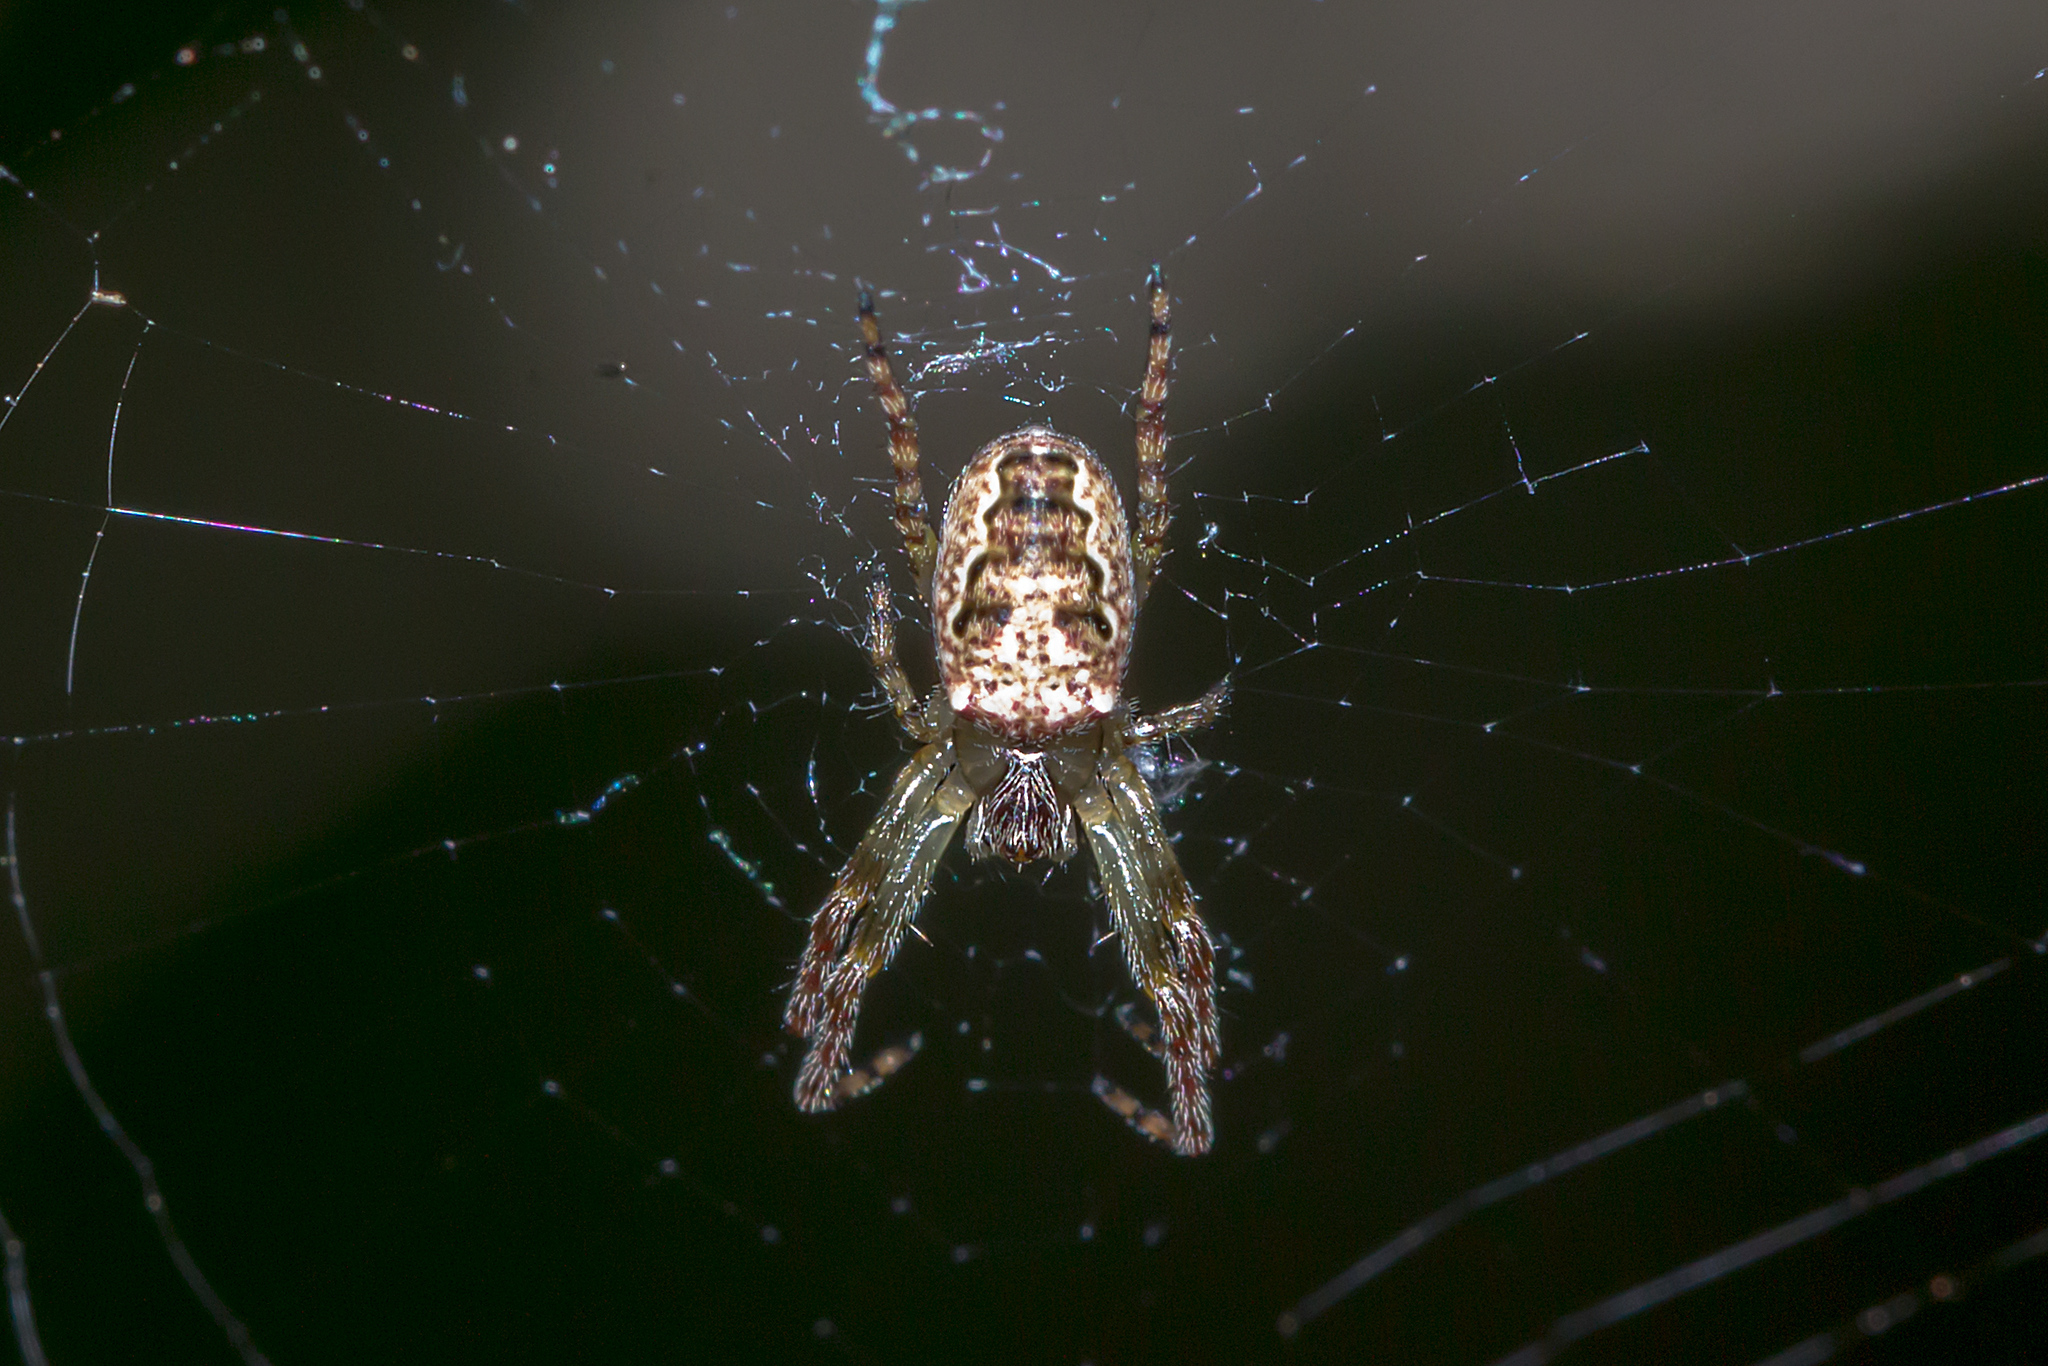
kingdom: Animalia
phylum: Arthropoda
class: Arachnida
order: Araneae
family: Araneidae
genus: Plebs
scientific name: Plebs eburnus
